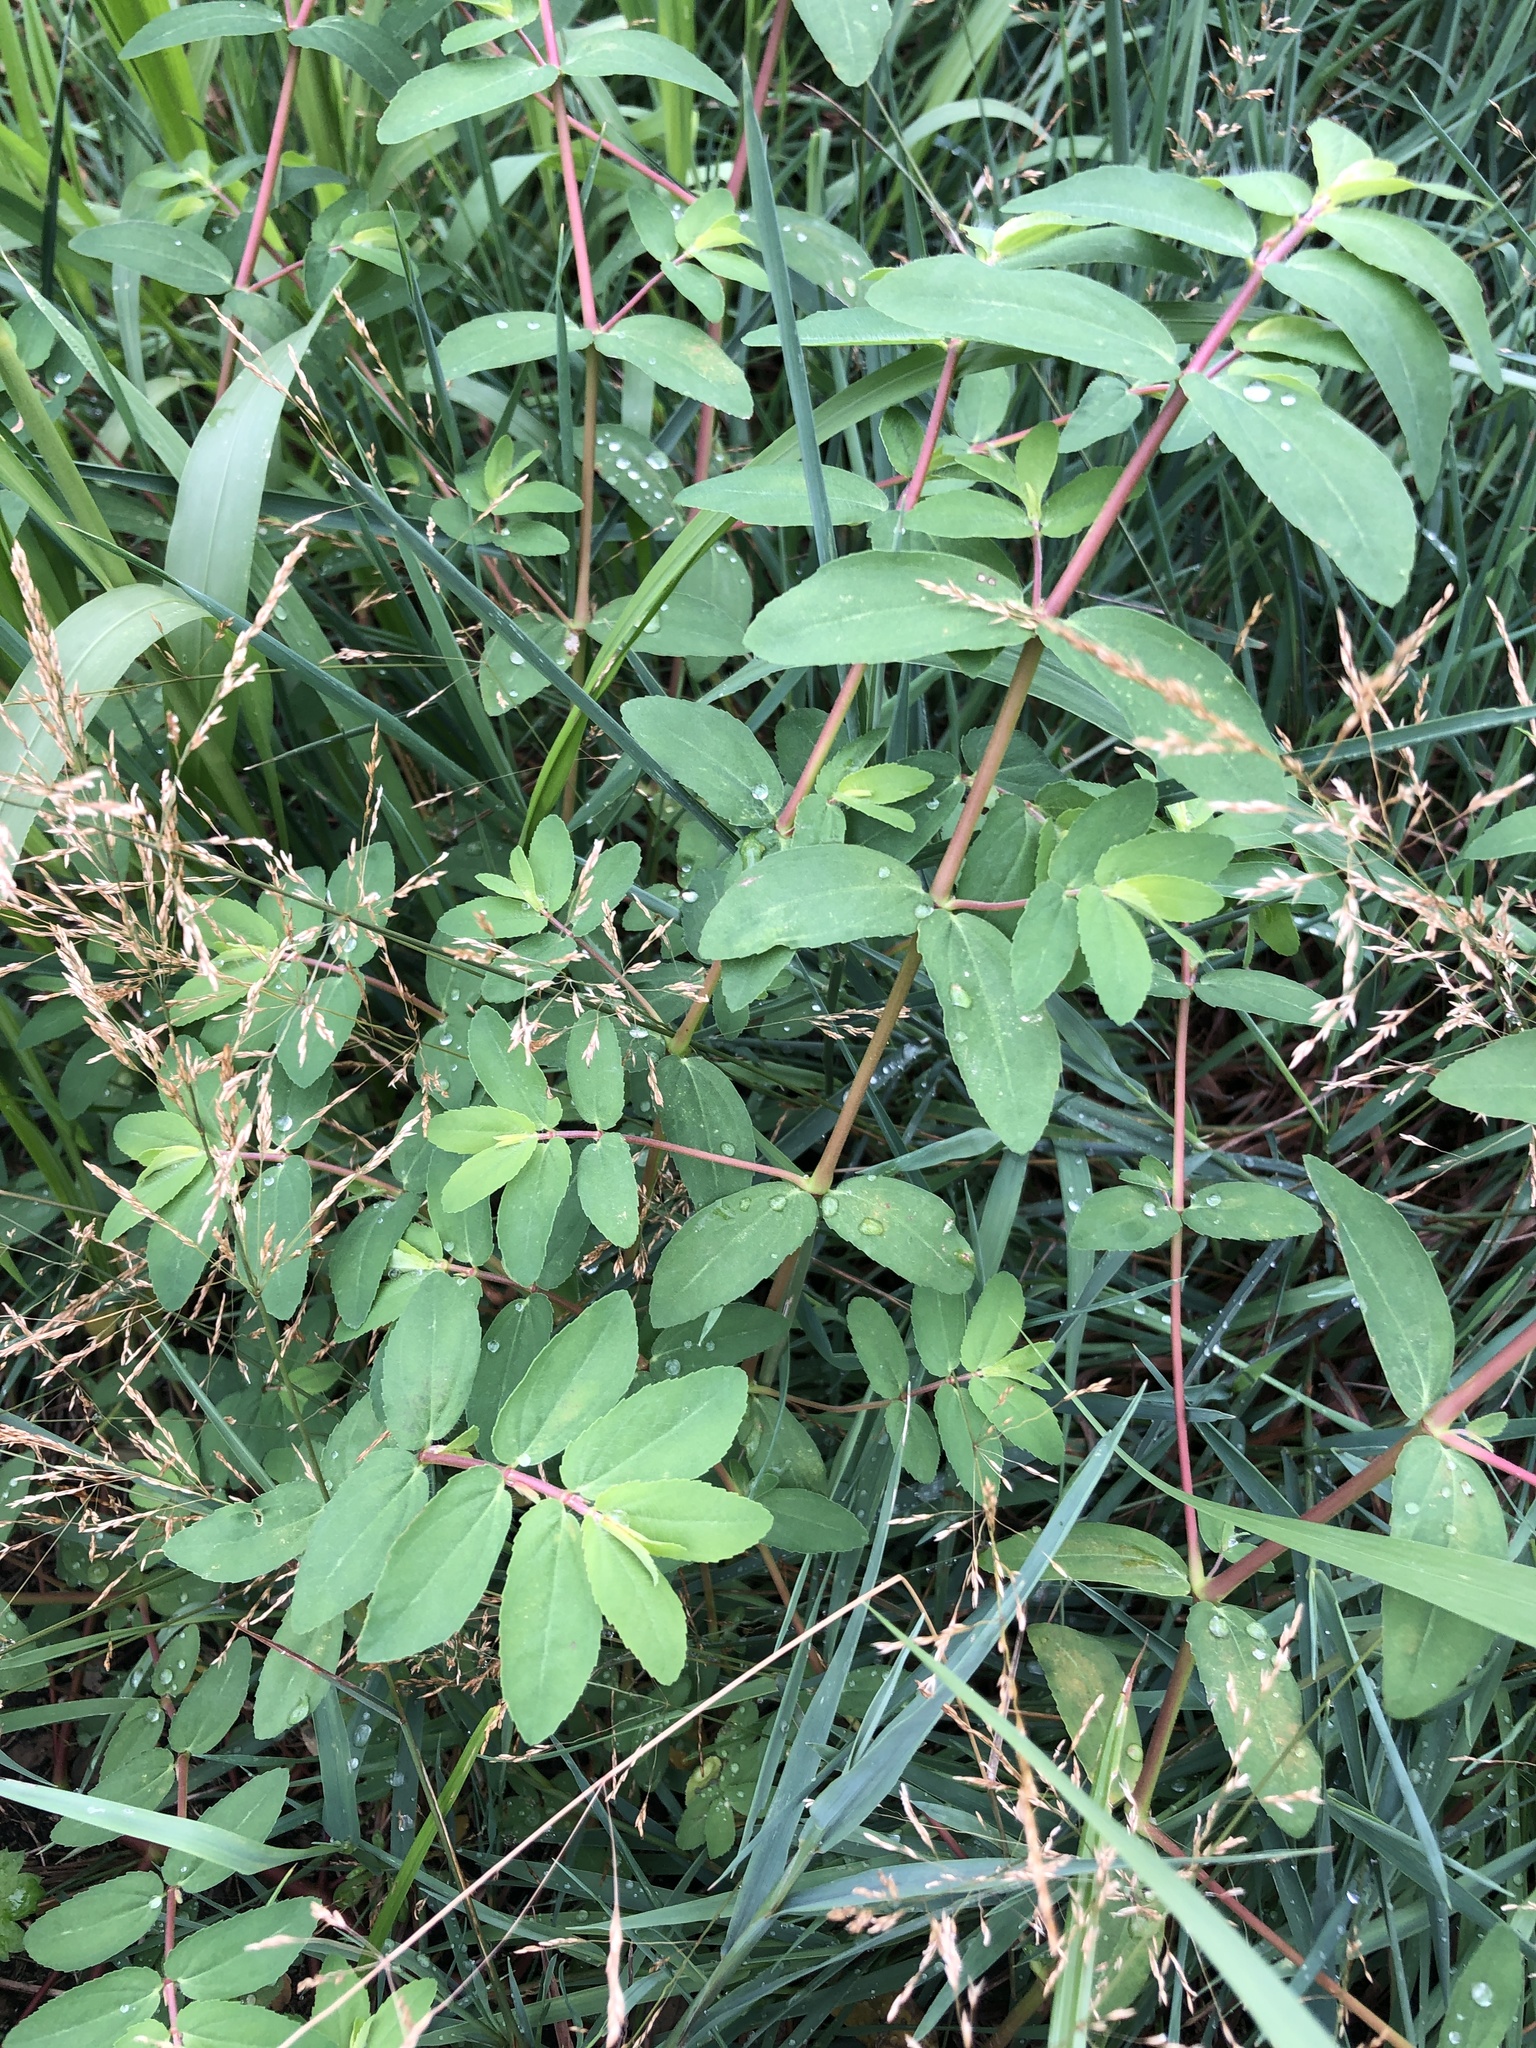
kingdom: Plantae
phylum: Tracheophyta
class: Magnoliopsida
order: Malpighiales
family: Euphorbiaceae
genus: Euphorbia
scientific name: Euphorbia nutans
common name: Eyebane
